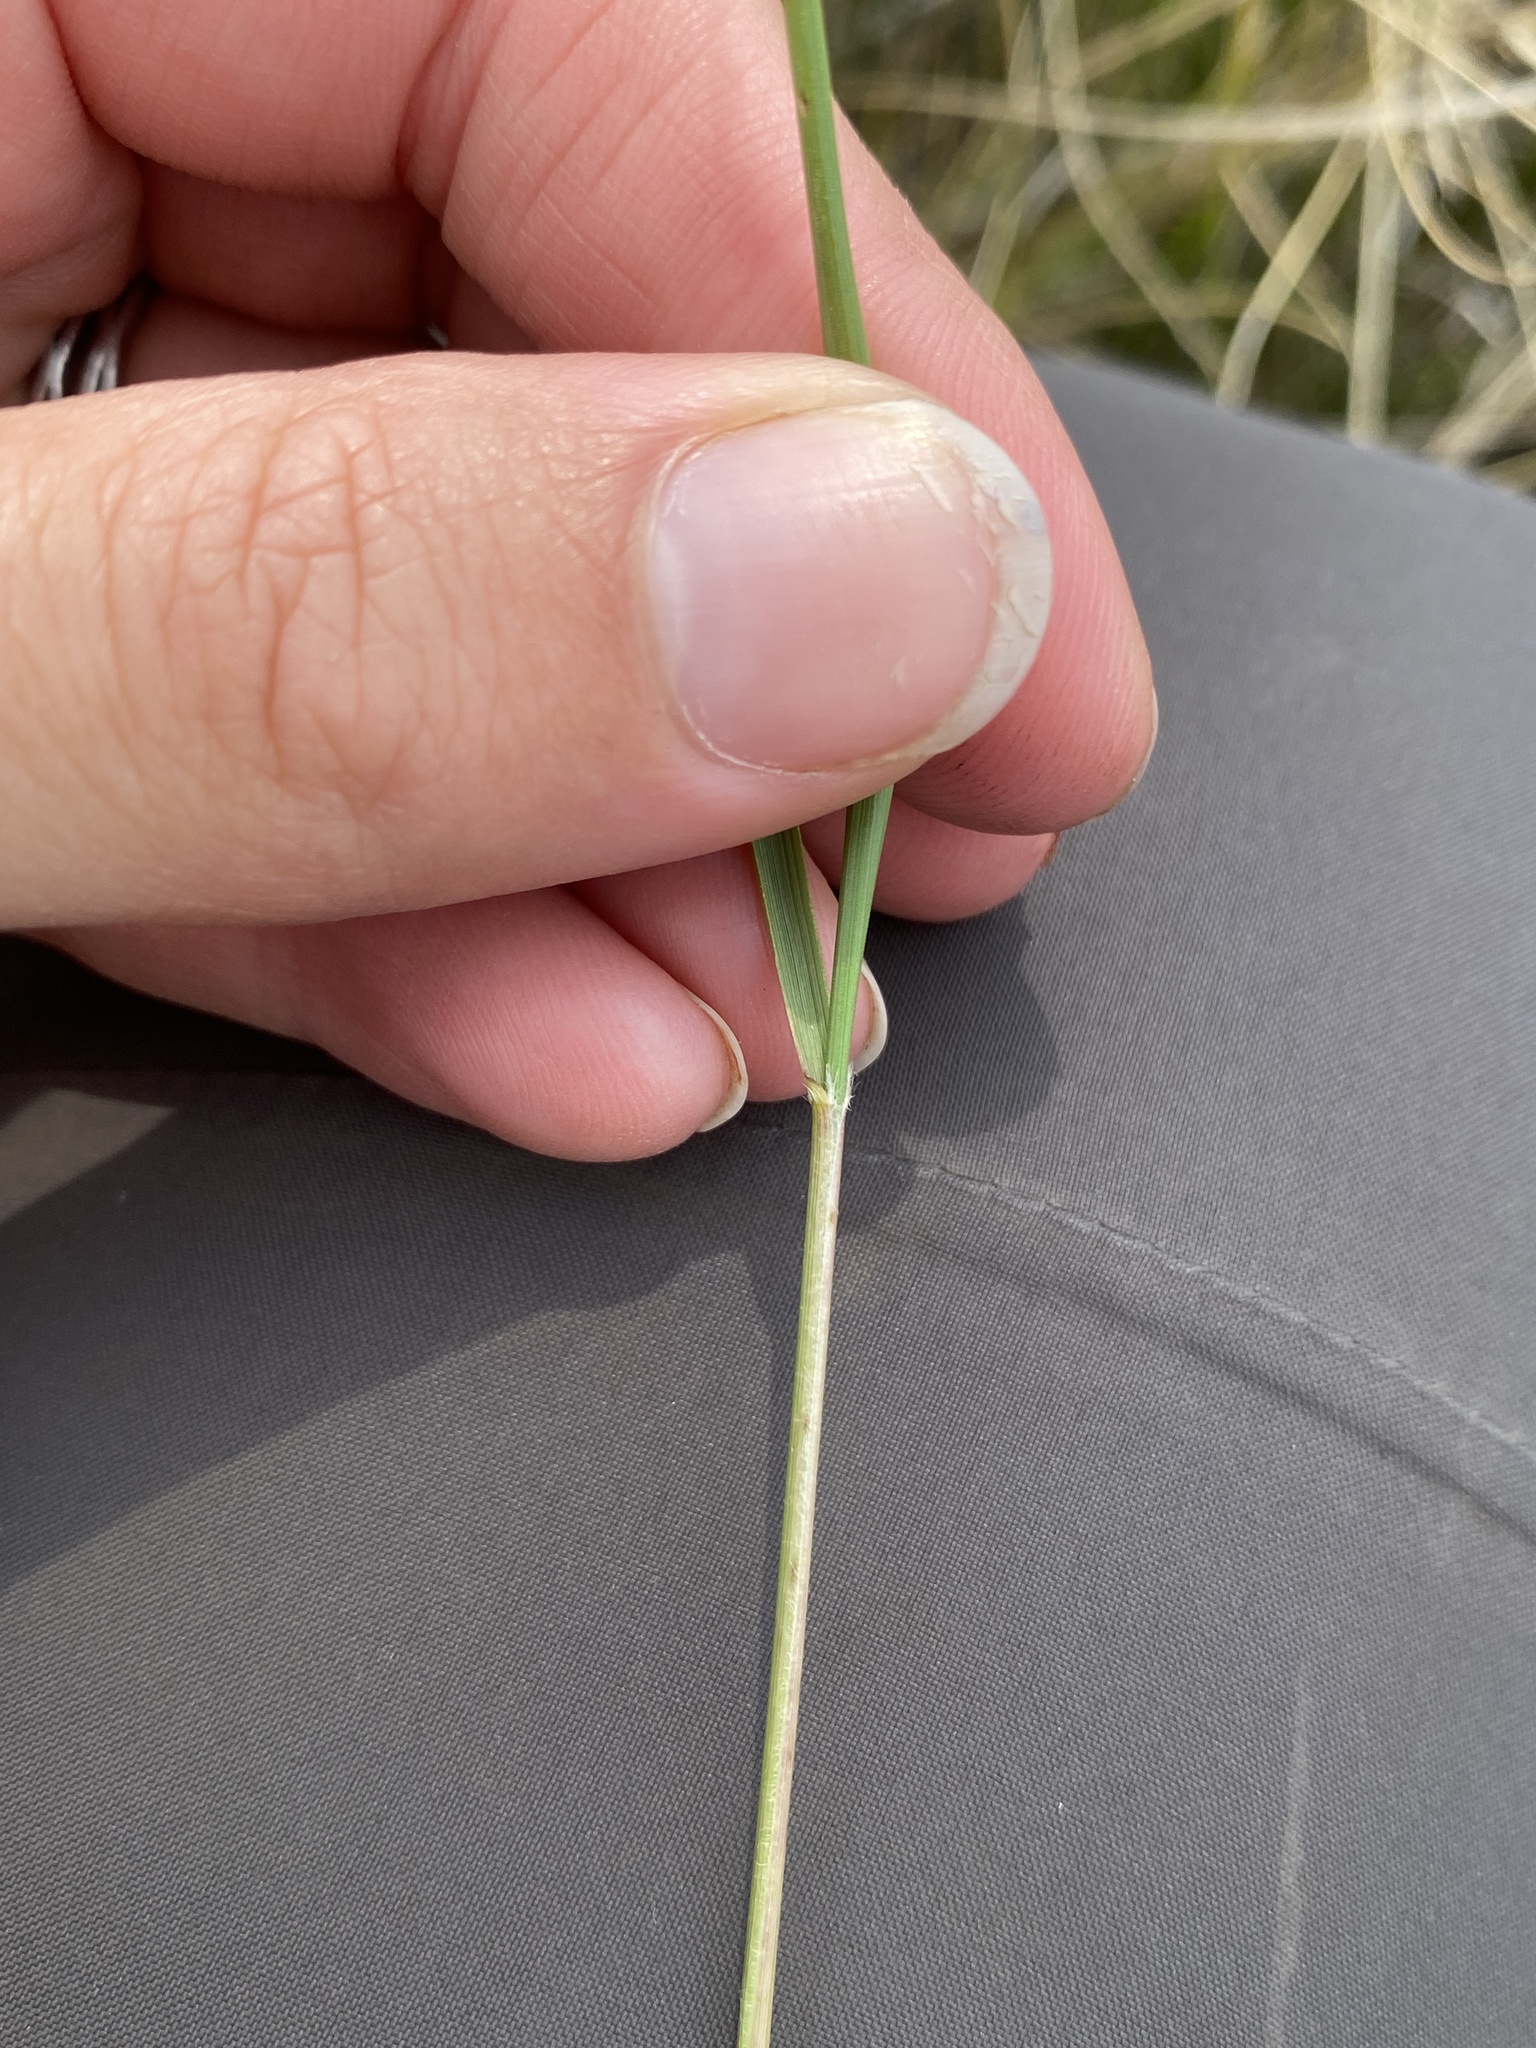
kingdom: Plantae
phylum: Tracheophyta
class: Liliopsida
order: Poales
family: Poaceae
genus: Nassella
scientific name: Nassella viridula
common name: Green needlegrass
